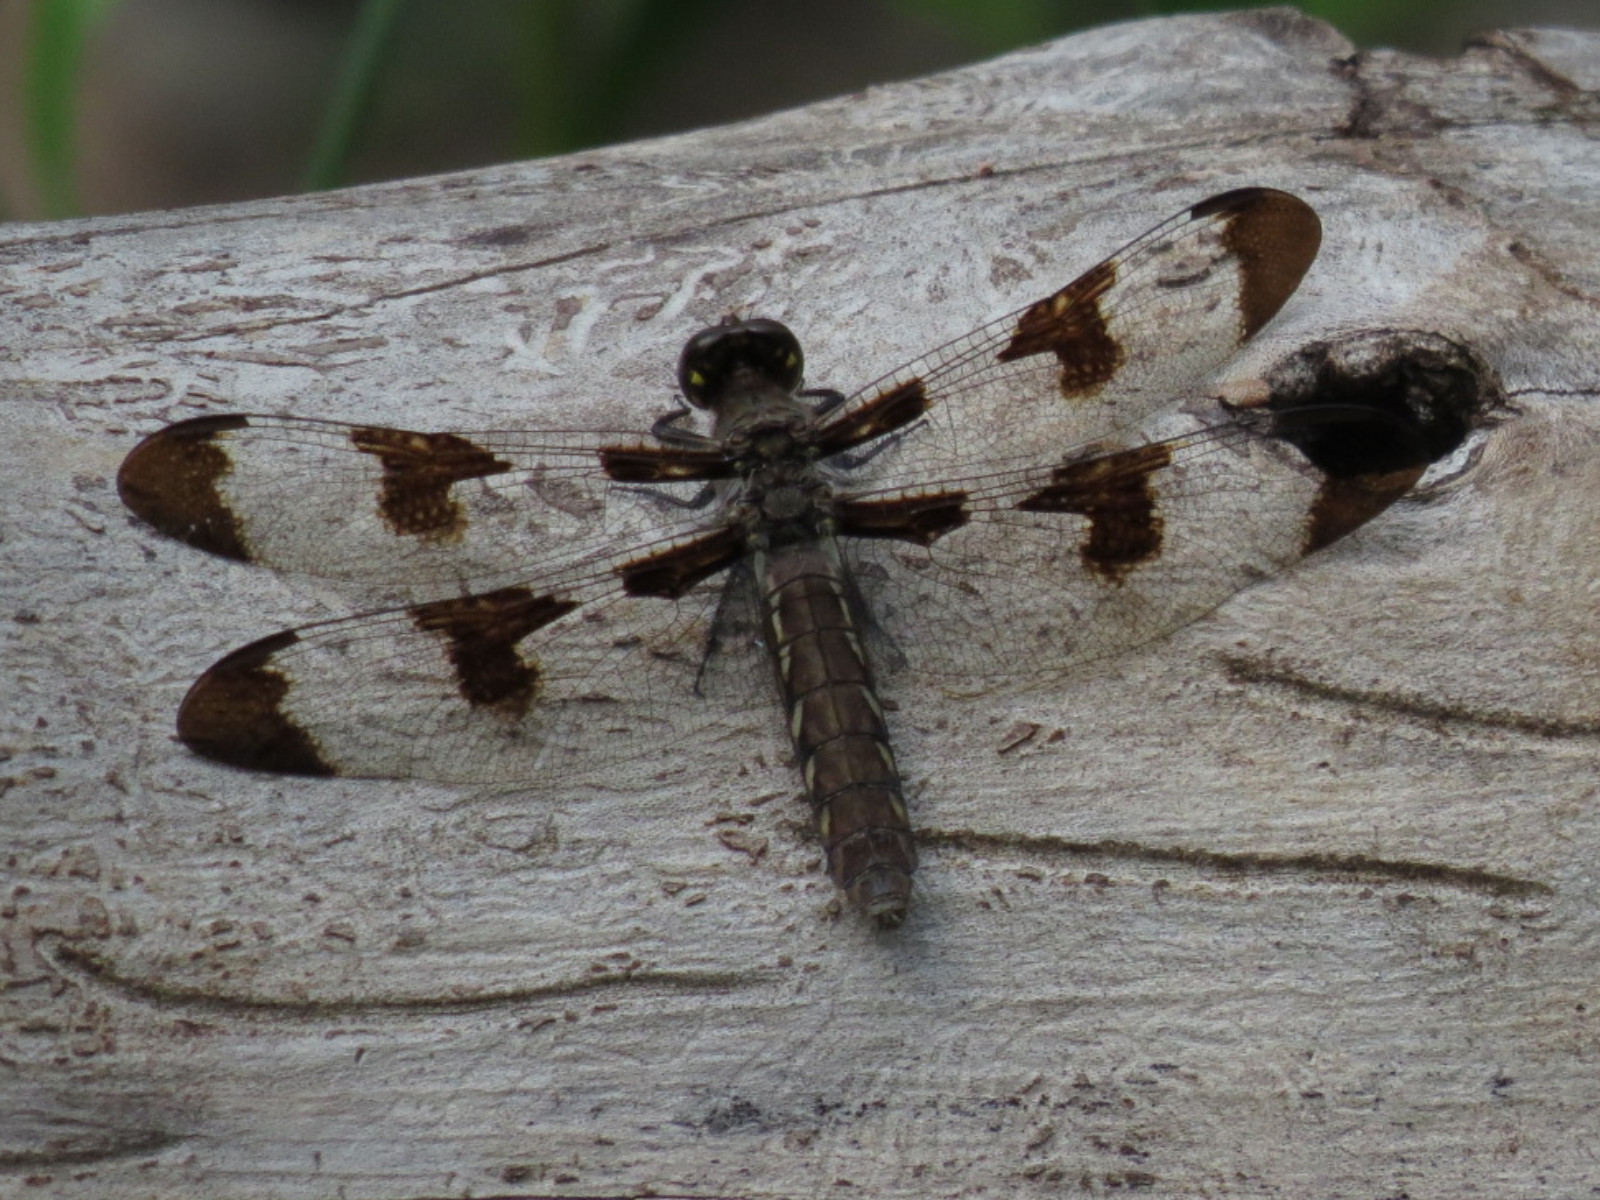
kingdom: Animalia
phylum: Arthropoda
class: Insecta
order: Odonata
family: Libellulidae
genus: Plathemis
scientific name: Plathemis lydia
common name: Common whitetail
